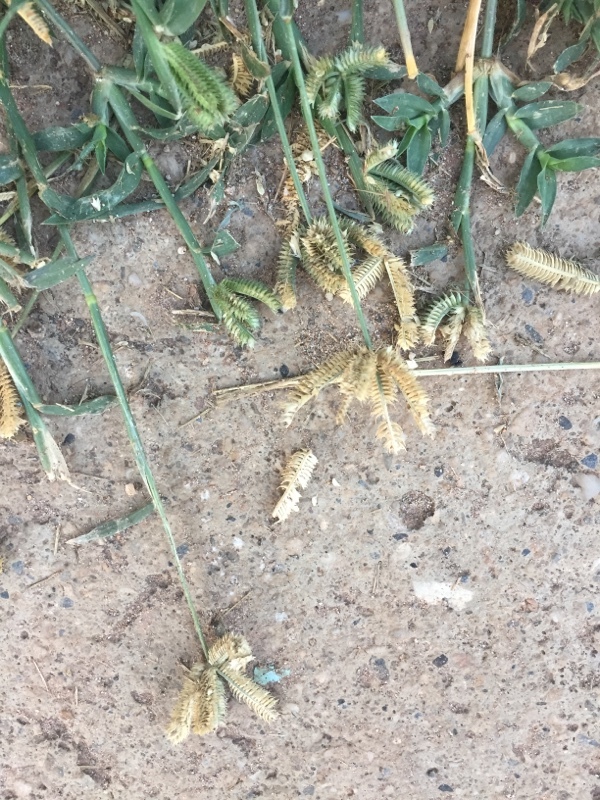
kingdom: Plantae
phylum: Tracheophyta
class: Liliopsida
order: Poales
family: Poaceae
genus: Dactyloctenium
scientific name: Dactyloctenium aegyptium
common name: Egyptian grass
